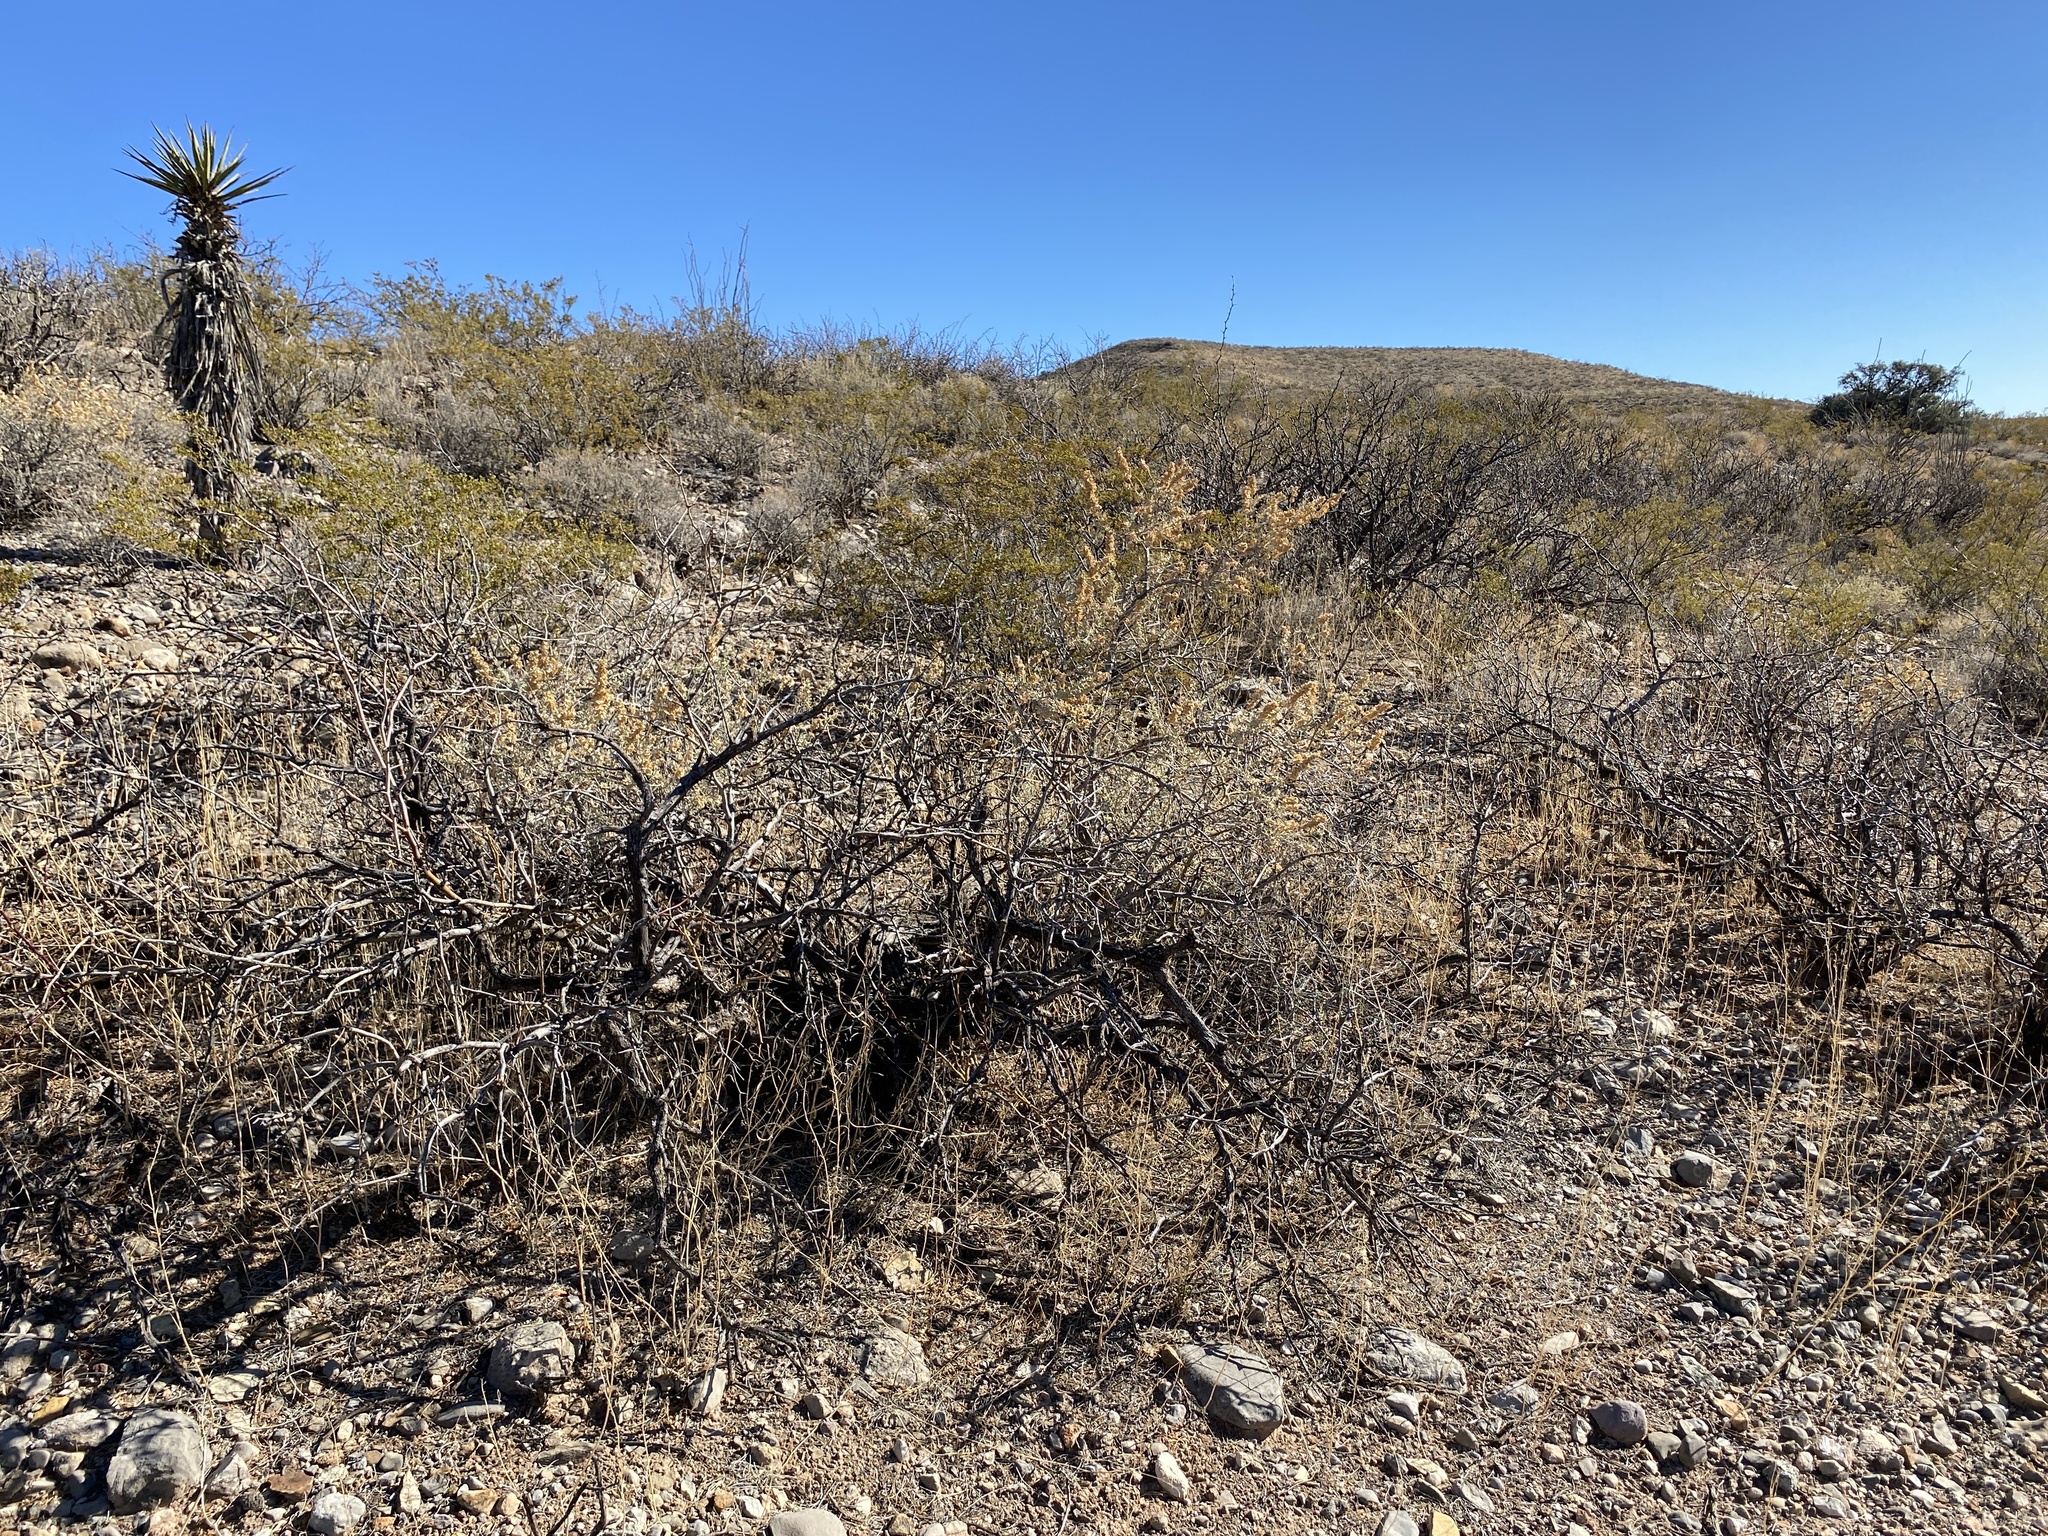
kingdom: Plantae
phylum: Tracheophyta
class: Magnoliopsida
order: Caryophyllales
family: Amaranthaceae
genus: Atriplex
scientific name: Atriplex canescens
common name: Four-wing saltbush
